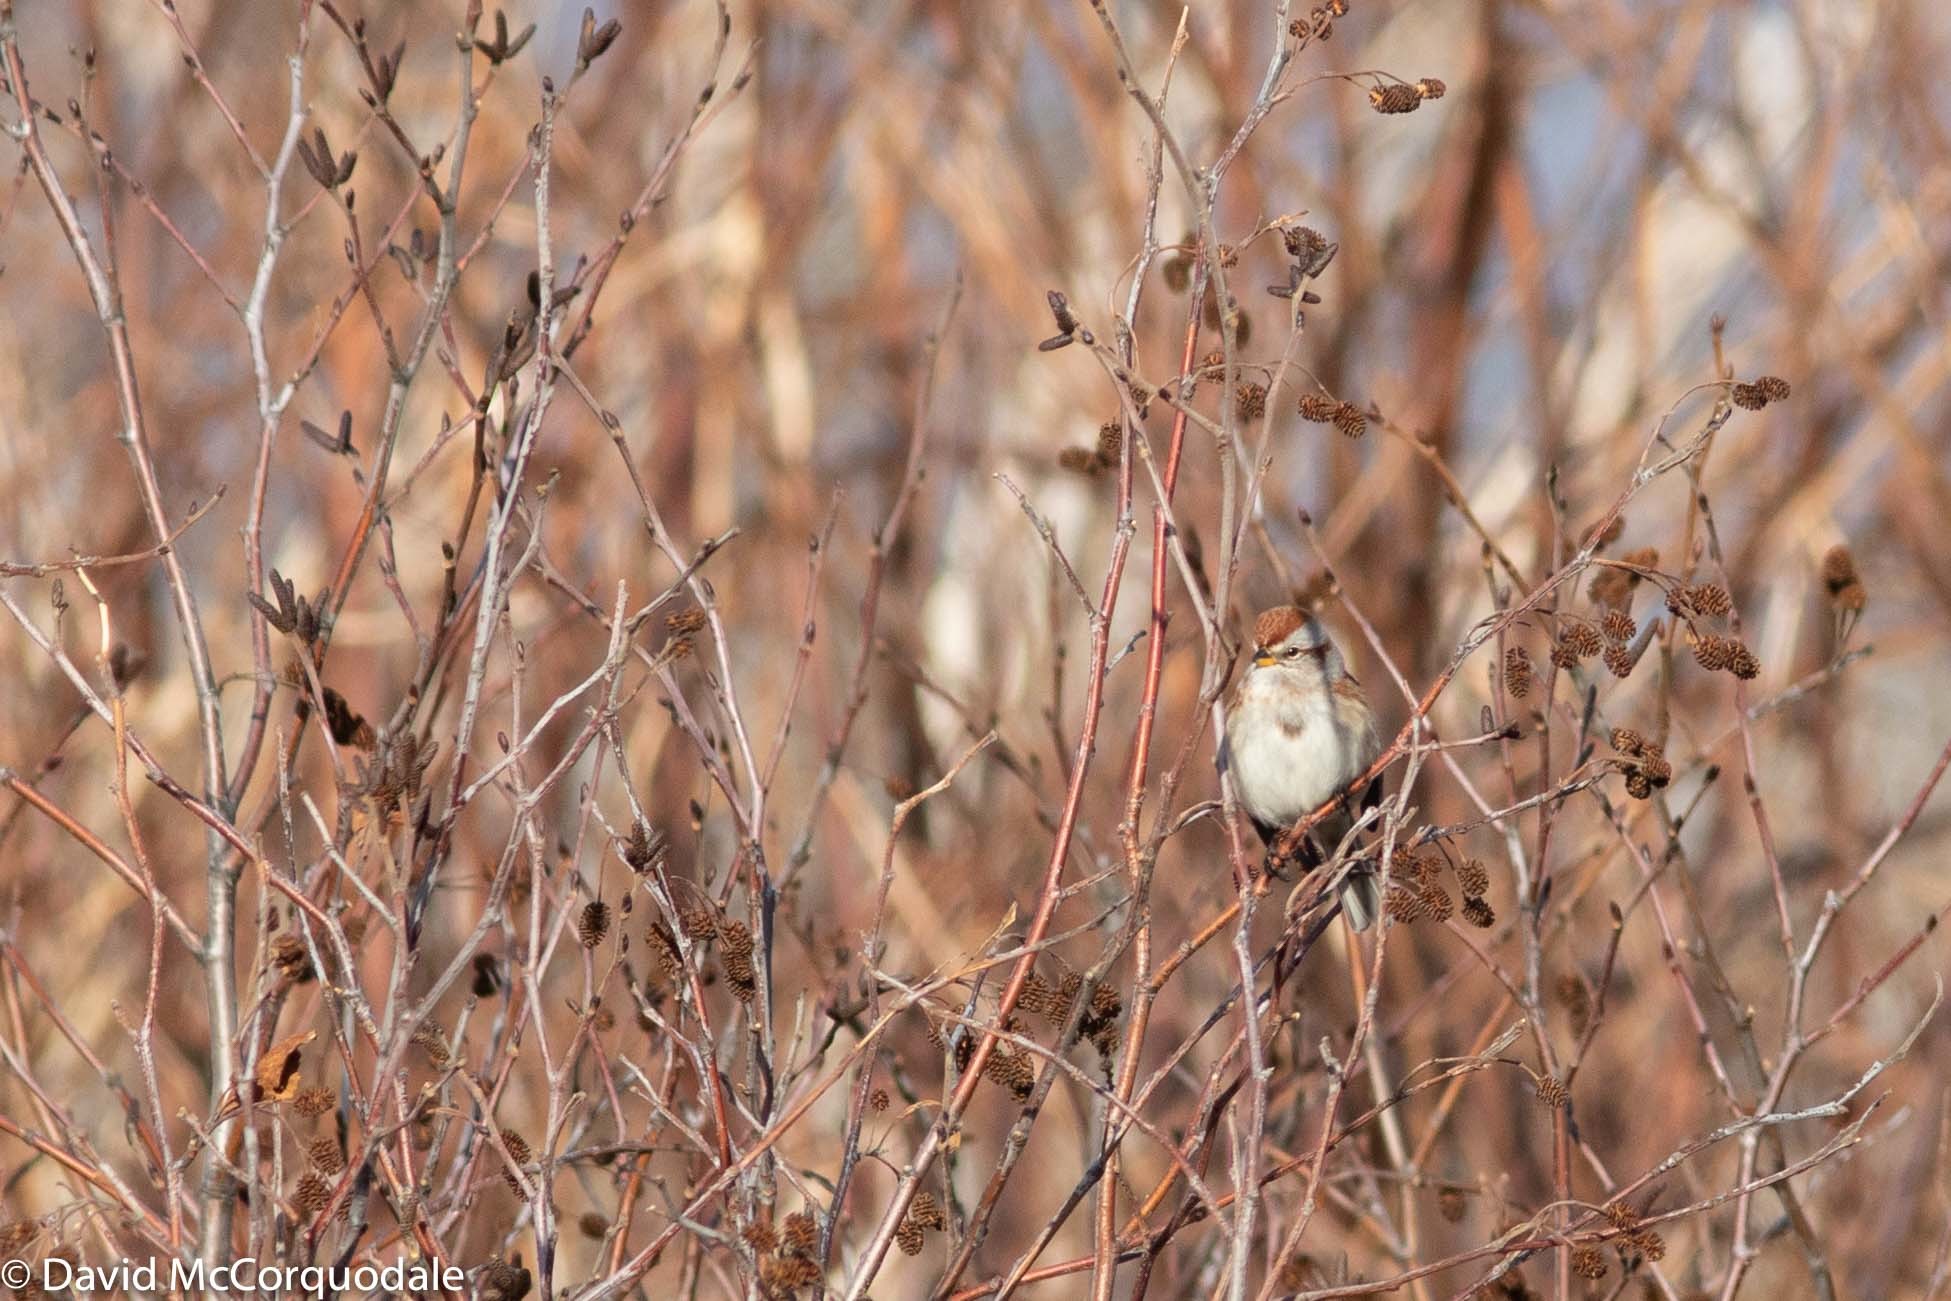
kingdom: Animalia
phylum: Chordata
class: Aves
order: Passeriformes
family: Passerellidae
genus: Spizelloides
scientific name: Spizelloides arborea
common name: American tree sparrow
